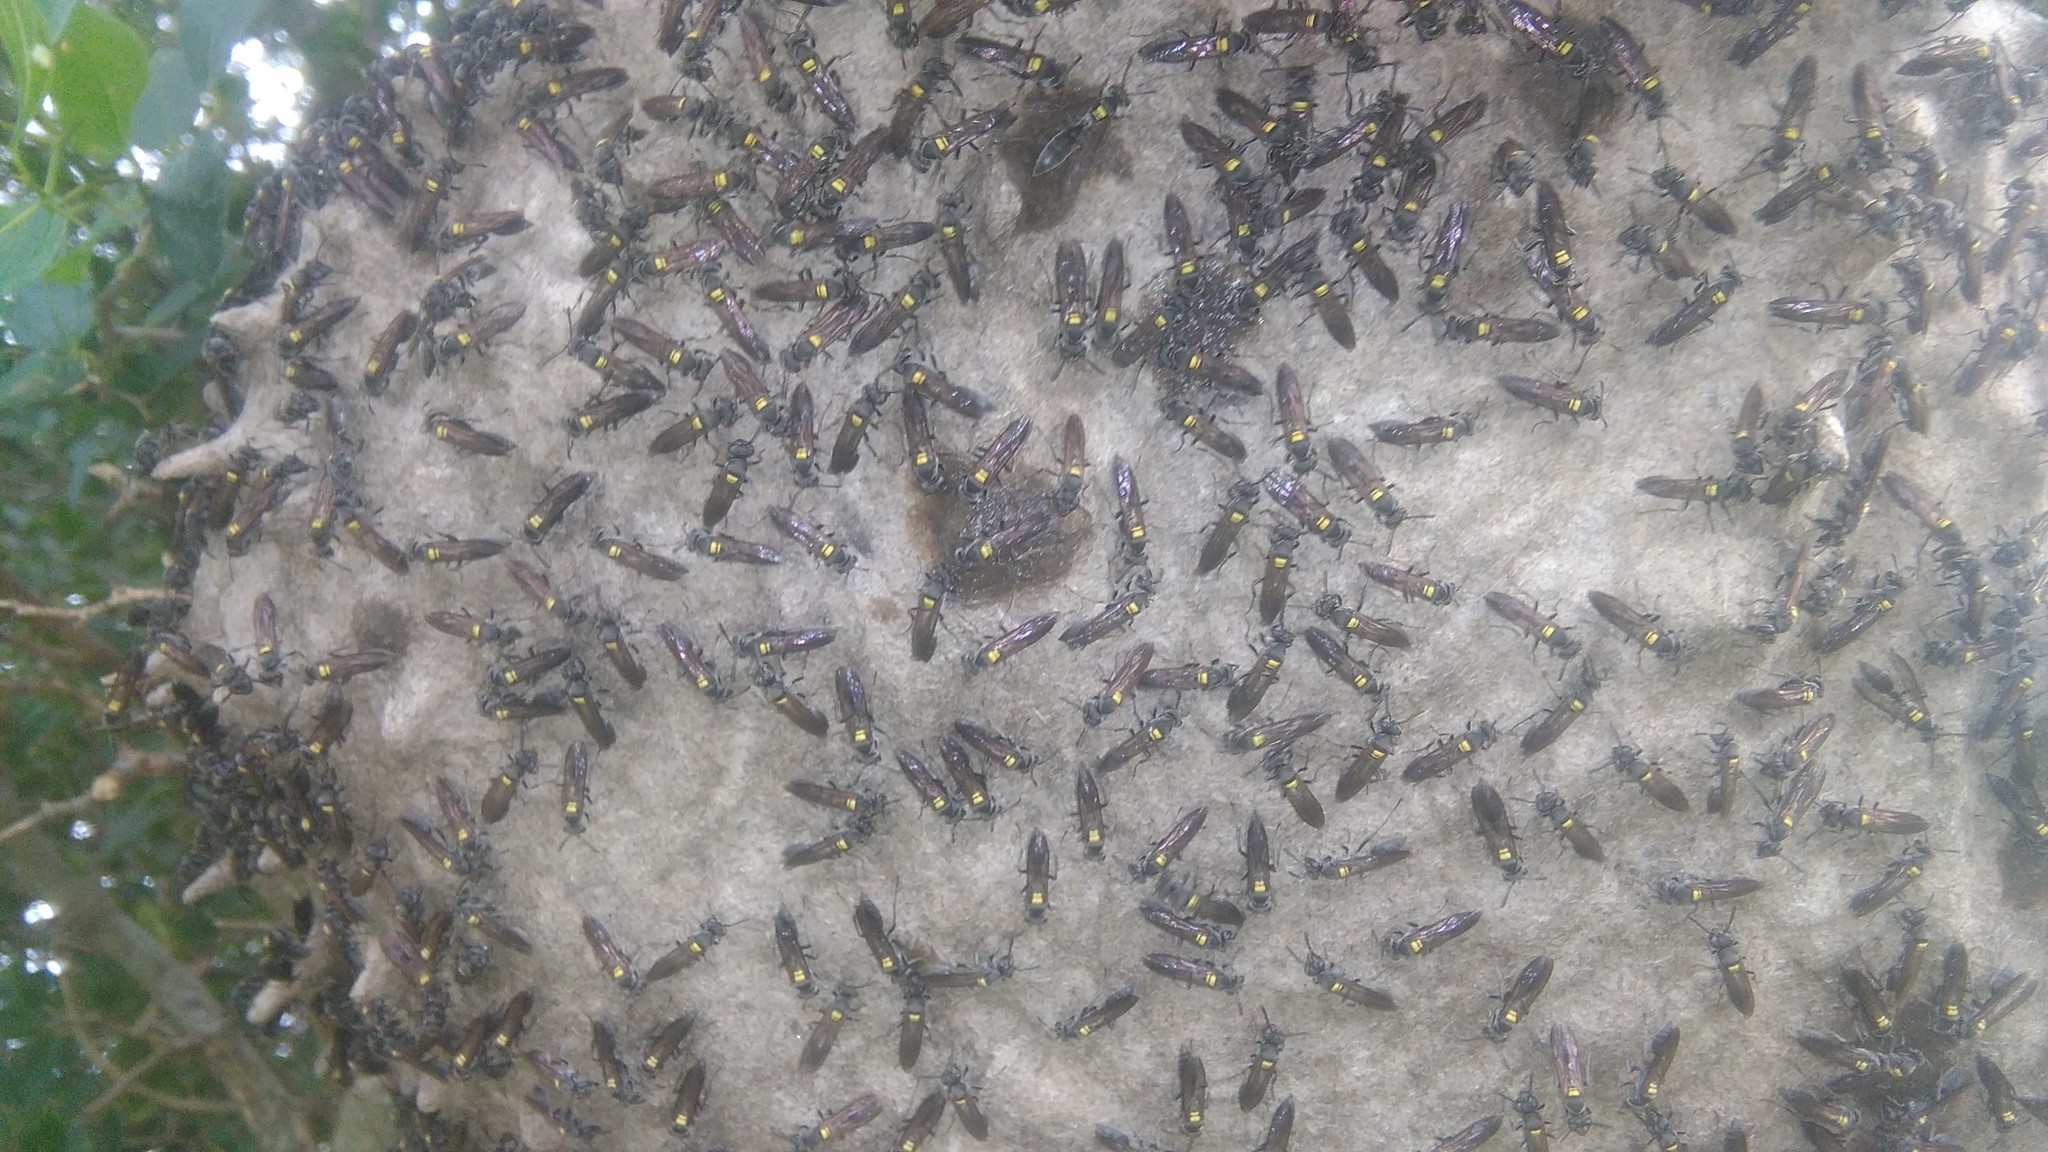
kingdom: Animalia
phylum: Arthropoda
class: Insecta
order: Hymenoptera
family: Eumenidae
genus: Polybia
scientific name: Polybia scutellaris
